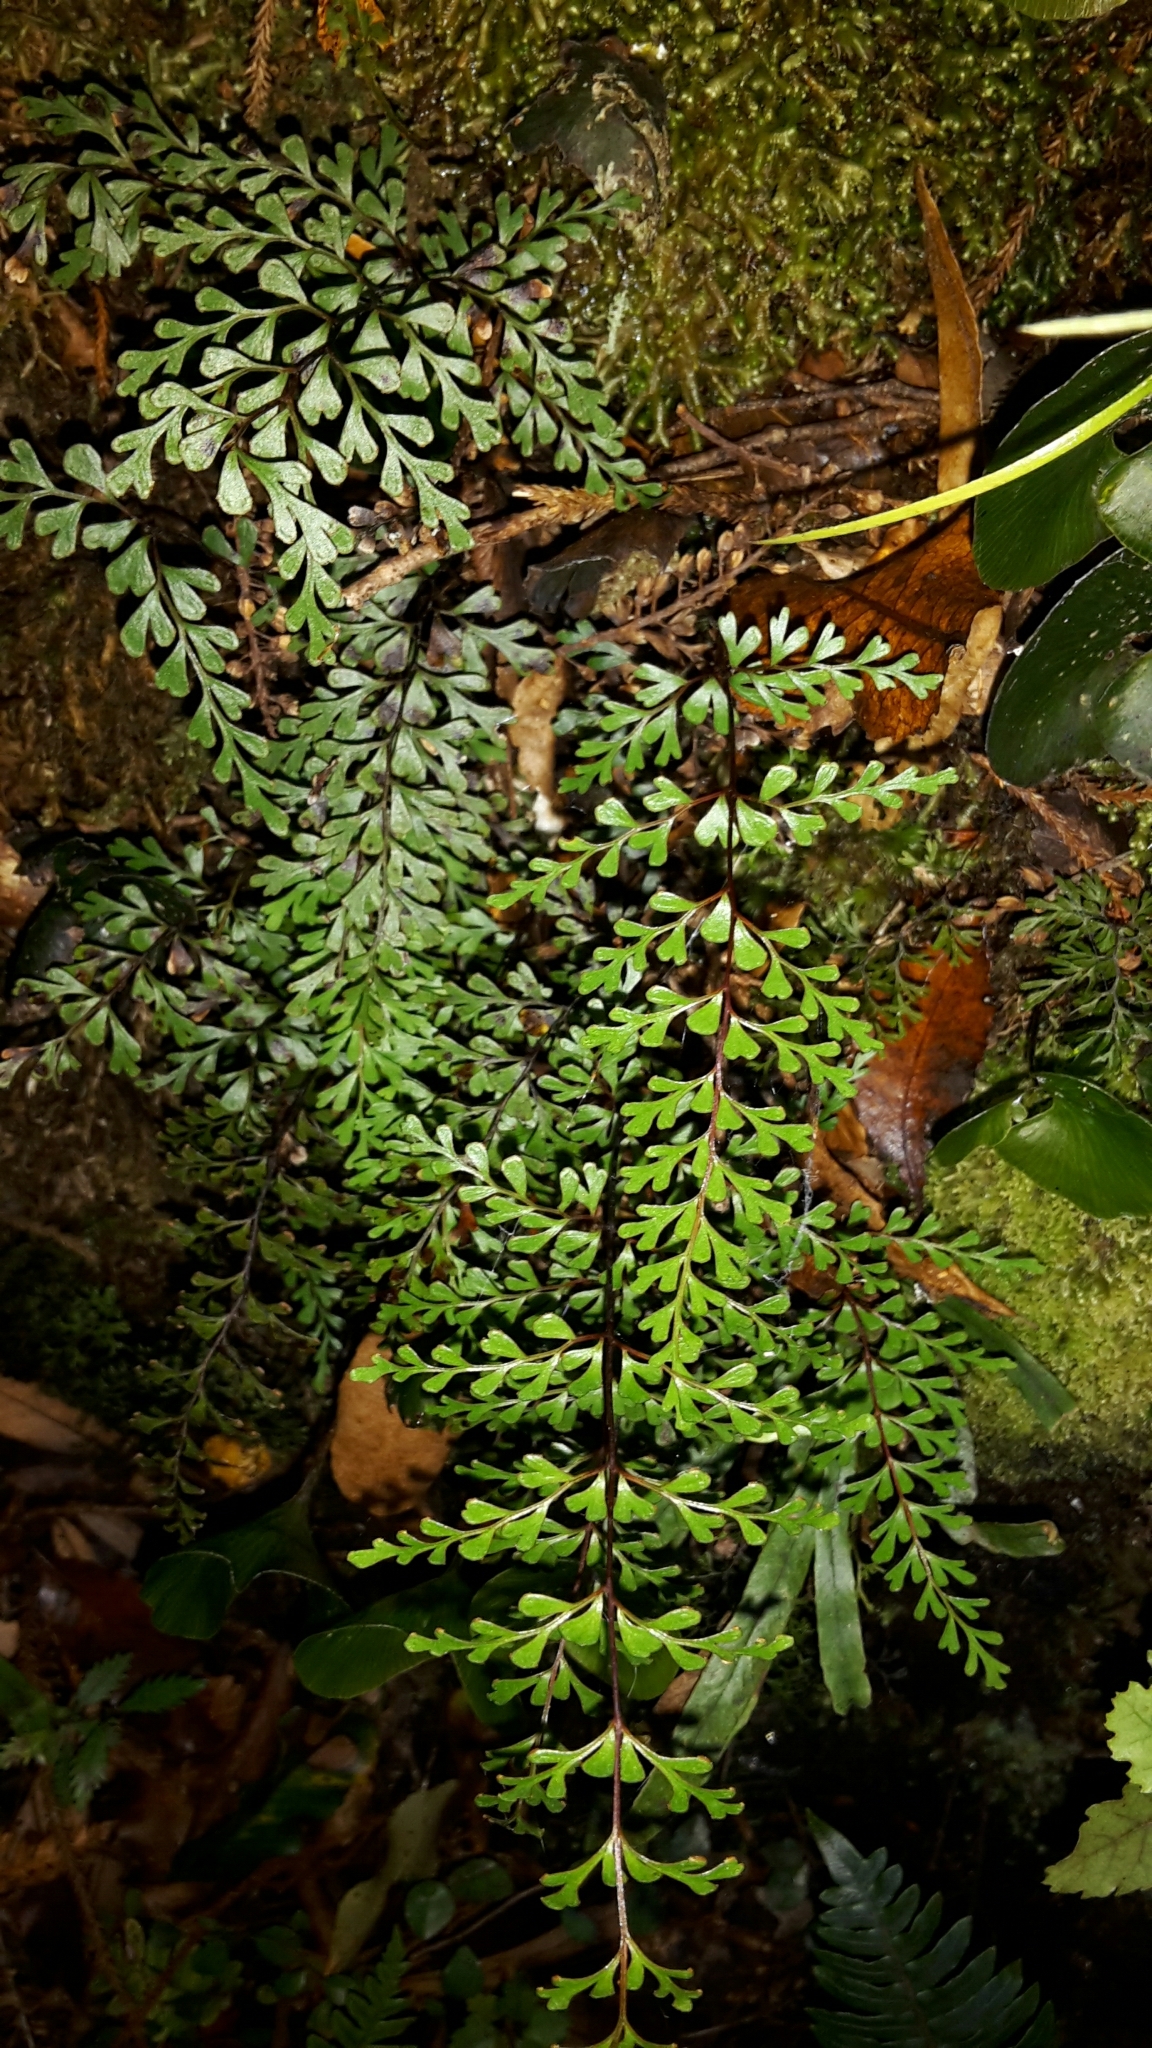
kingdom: Plantae
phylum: Tracheophyta
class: Polypodiopsida
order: Polypodiales
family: Lindsaeaceae
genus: Lindsaea
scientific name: Lindsaea trichomanoides
